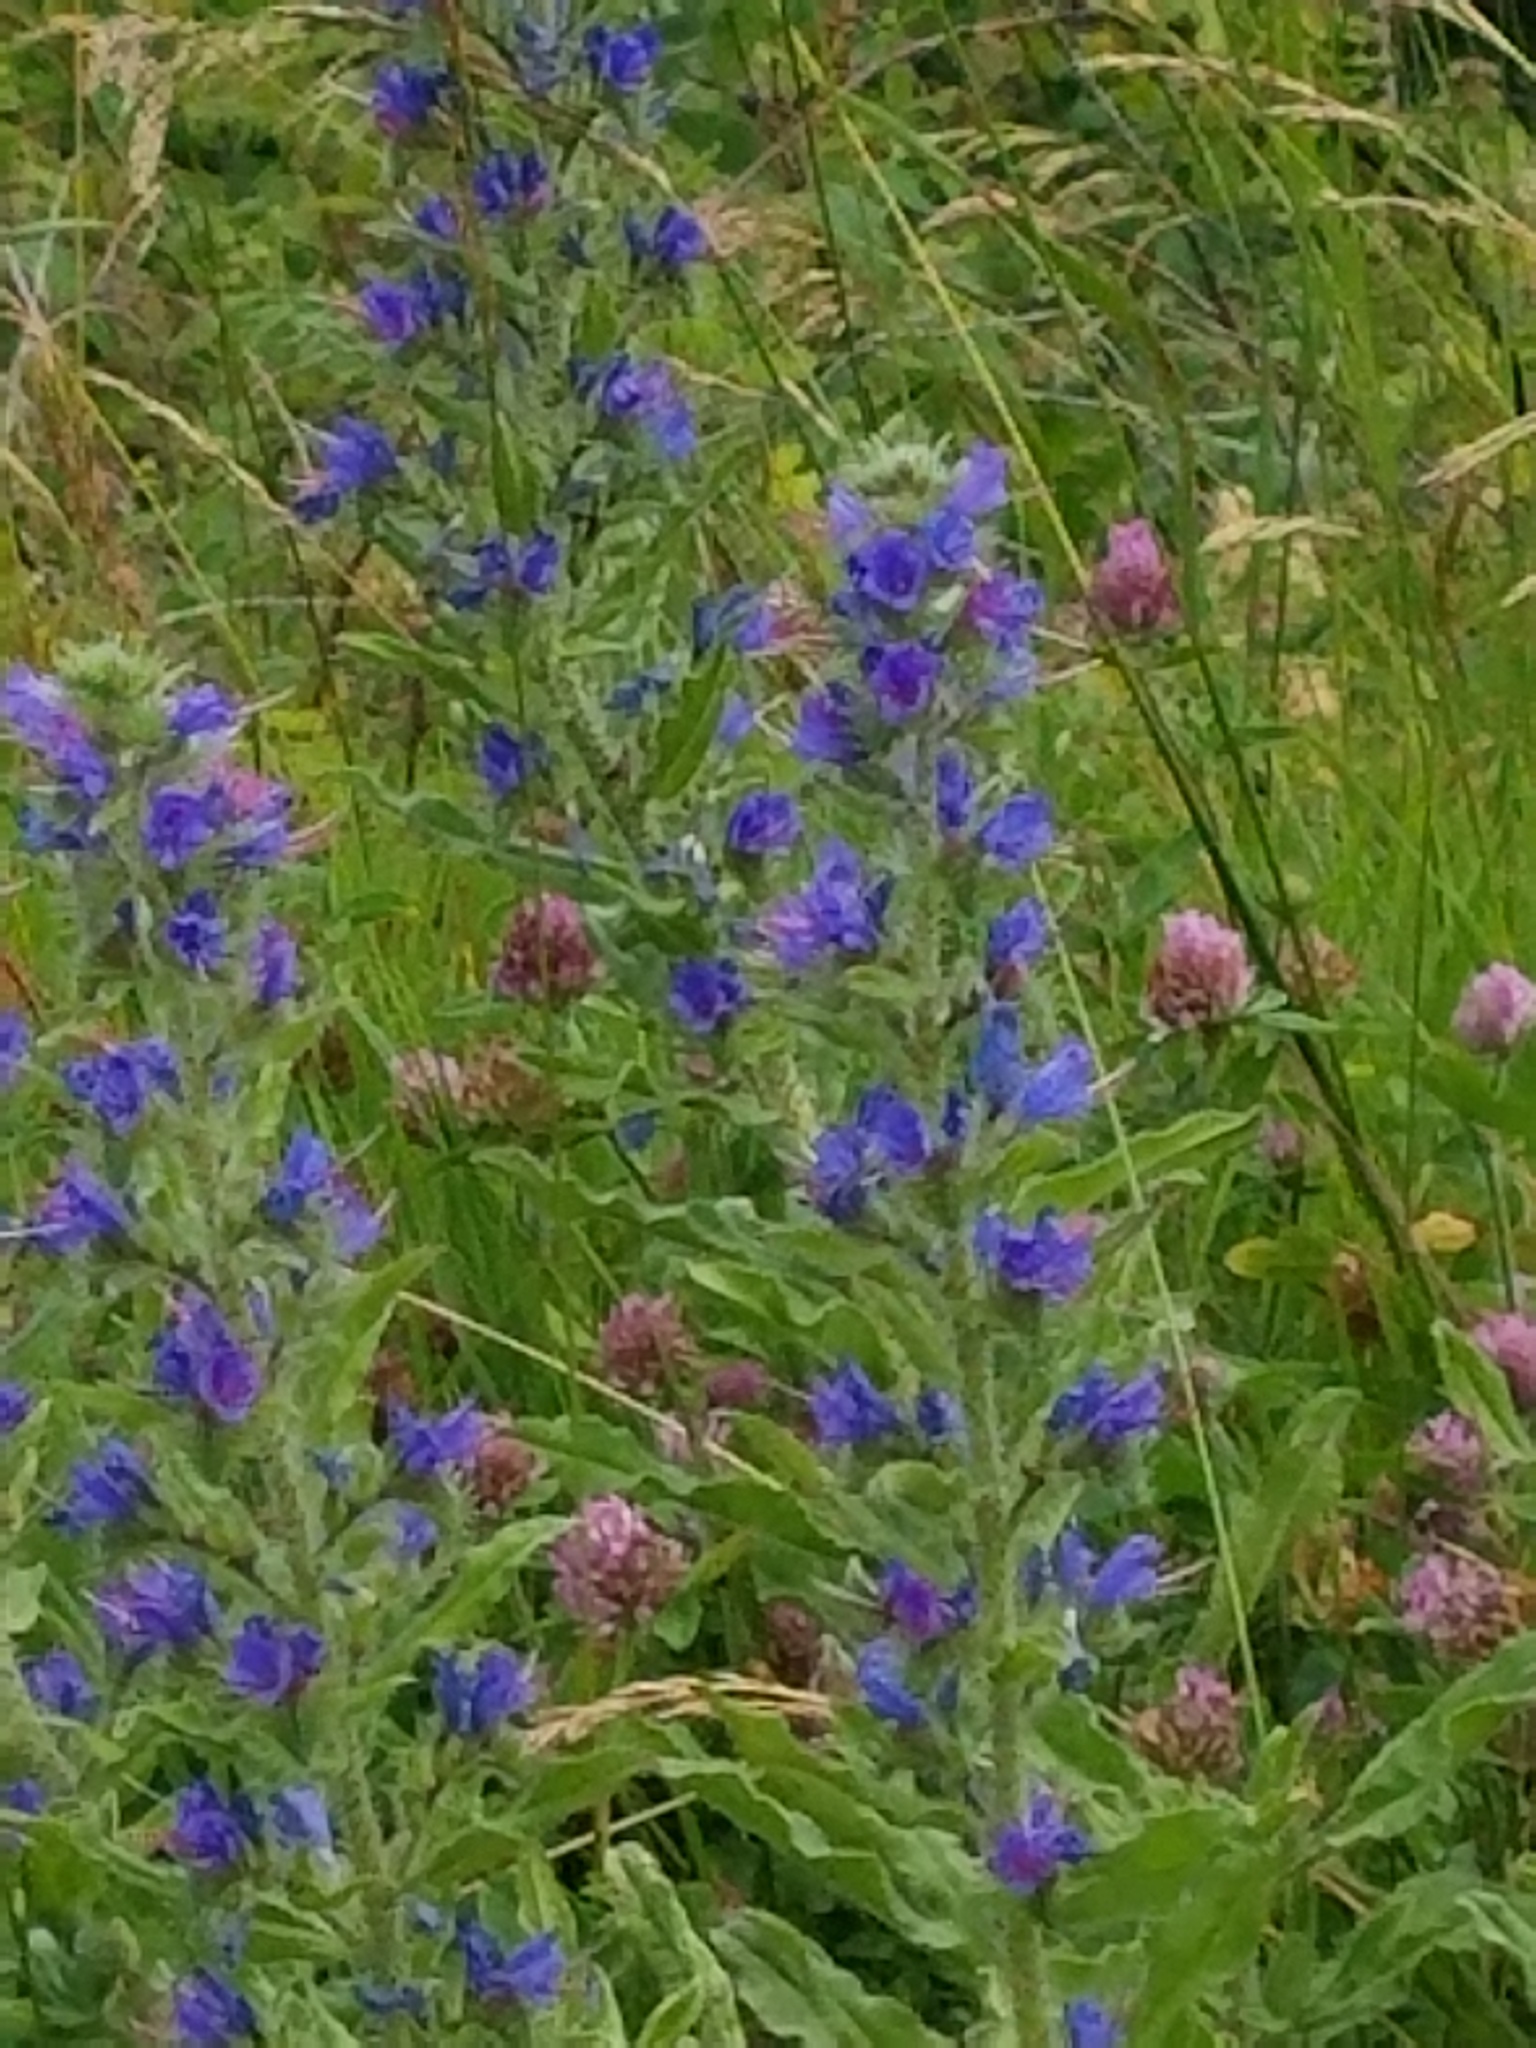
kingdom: Plantae
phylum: Tracheophyta
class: Magnoliopsida
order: Boraginales
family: Boraginaceae
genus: Echium
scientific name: Echium vulgare
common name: Common viper's bugloss
